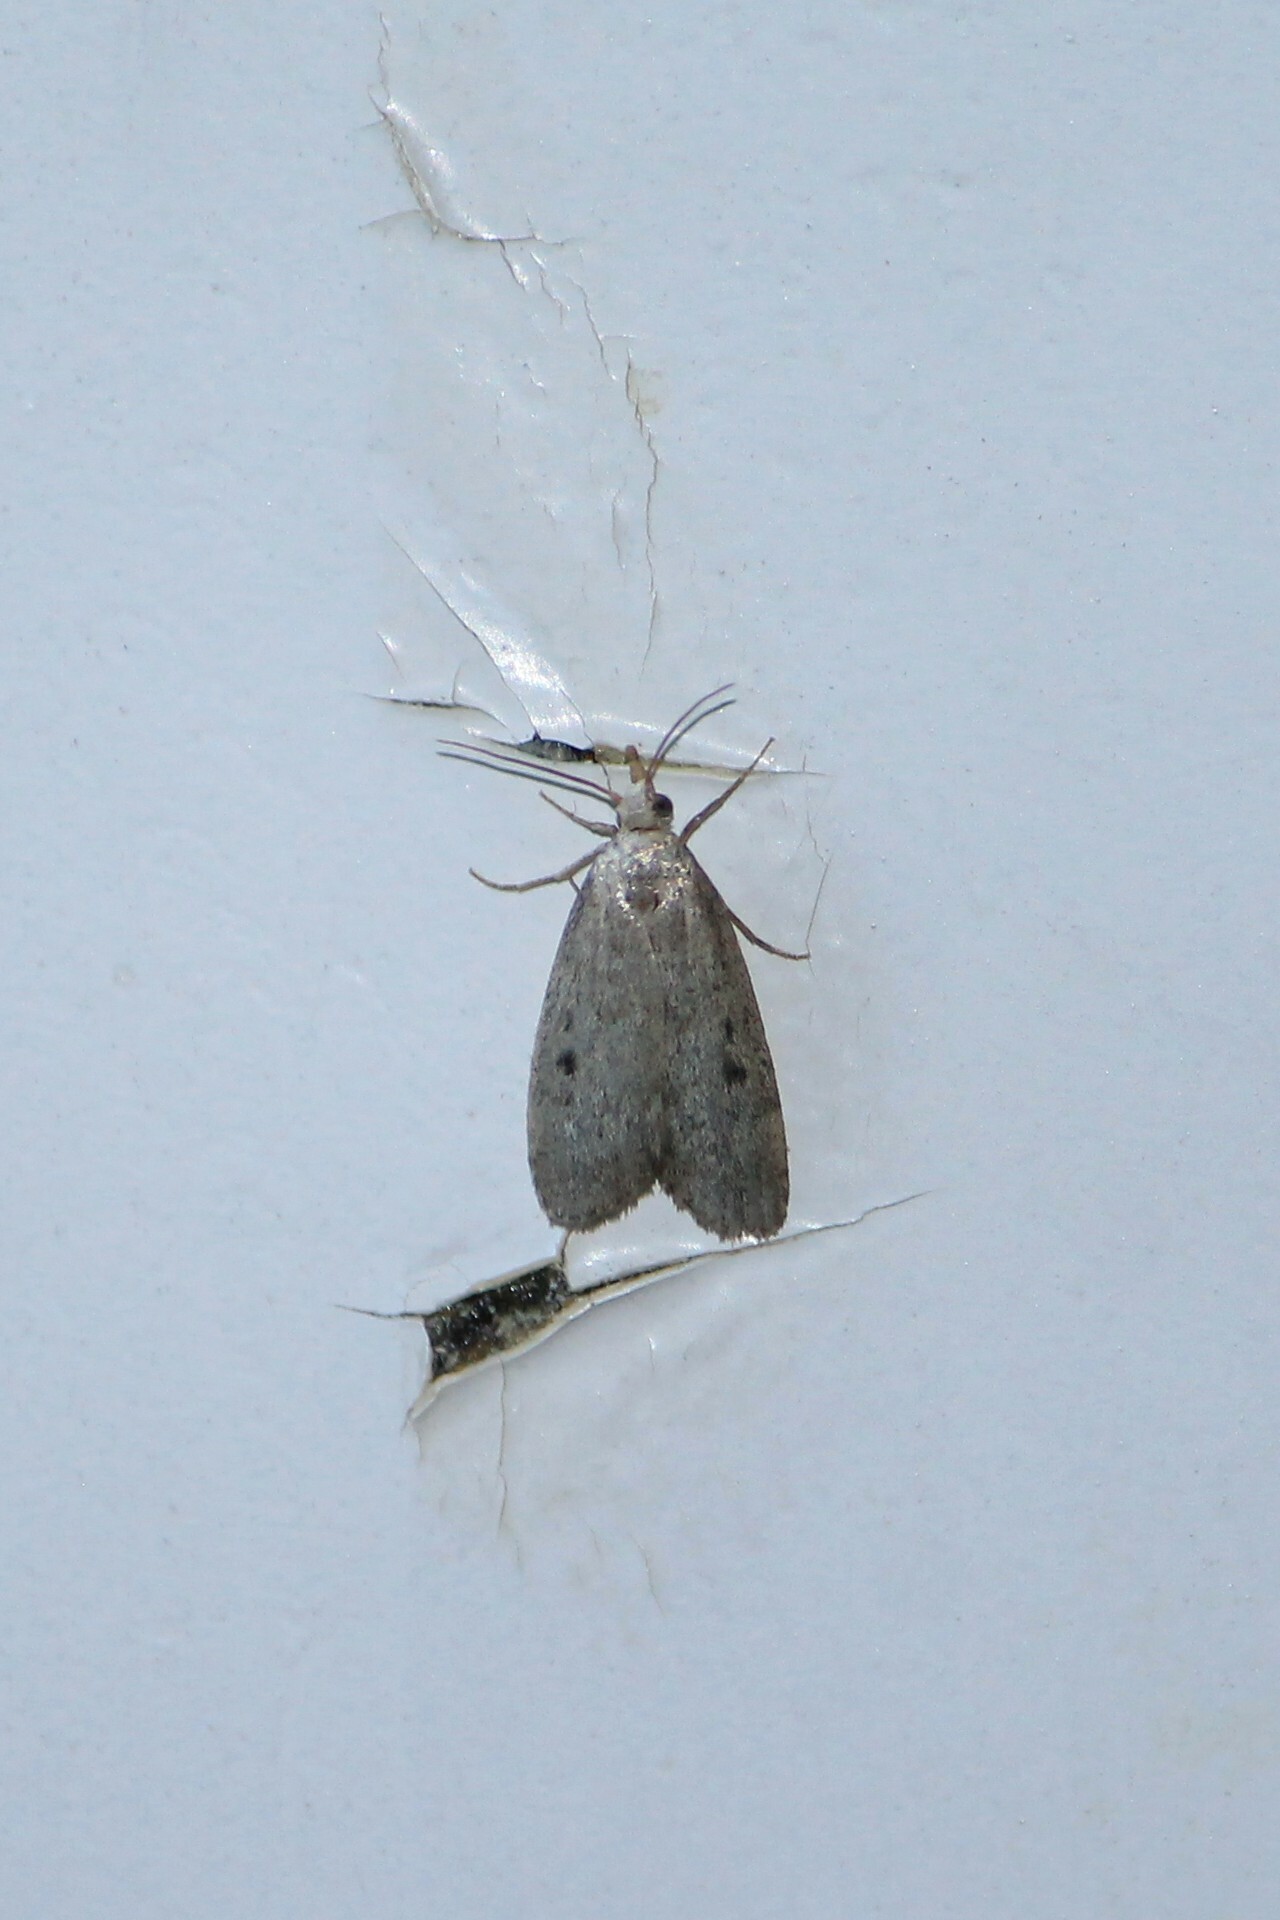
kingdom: Animalia
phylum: Arthropoda
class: Insecta
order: Lepidoptera
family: Pyralidae
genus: Aphomia
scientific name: Aphomia sociella
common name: Bee moth
